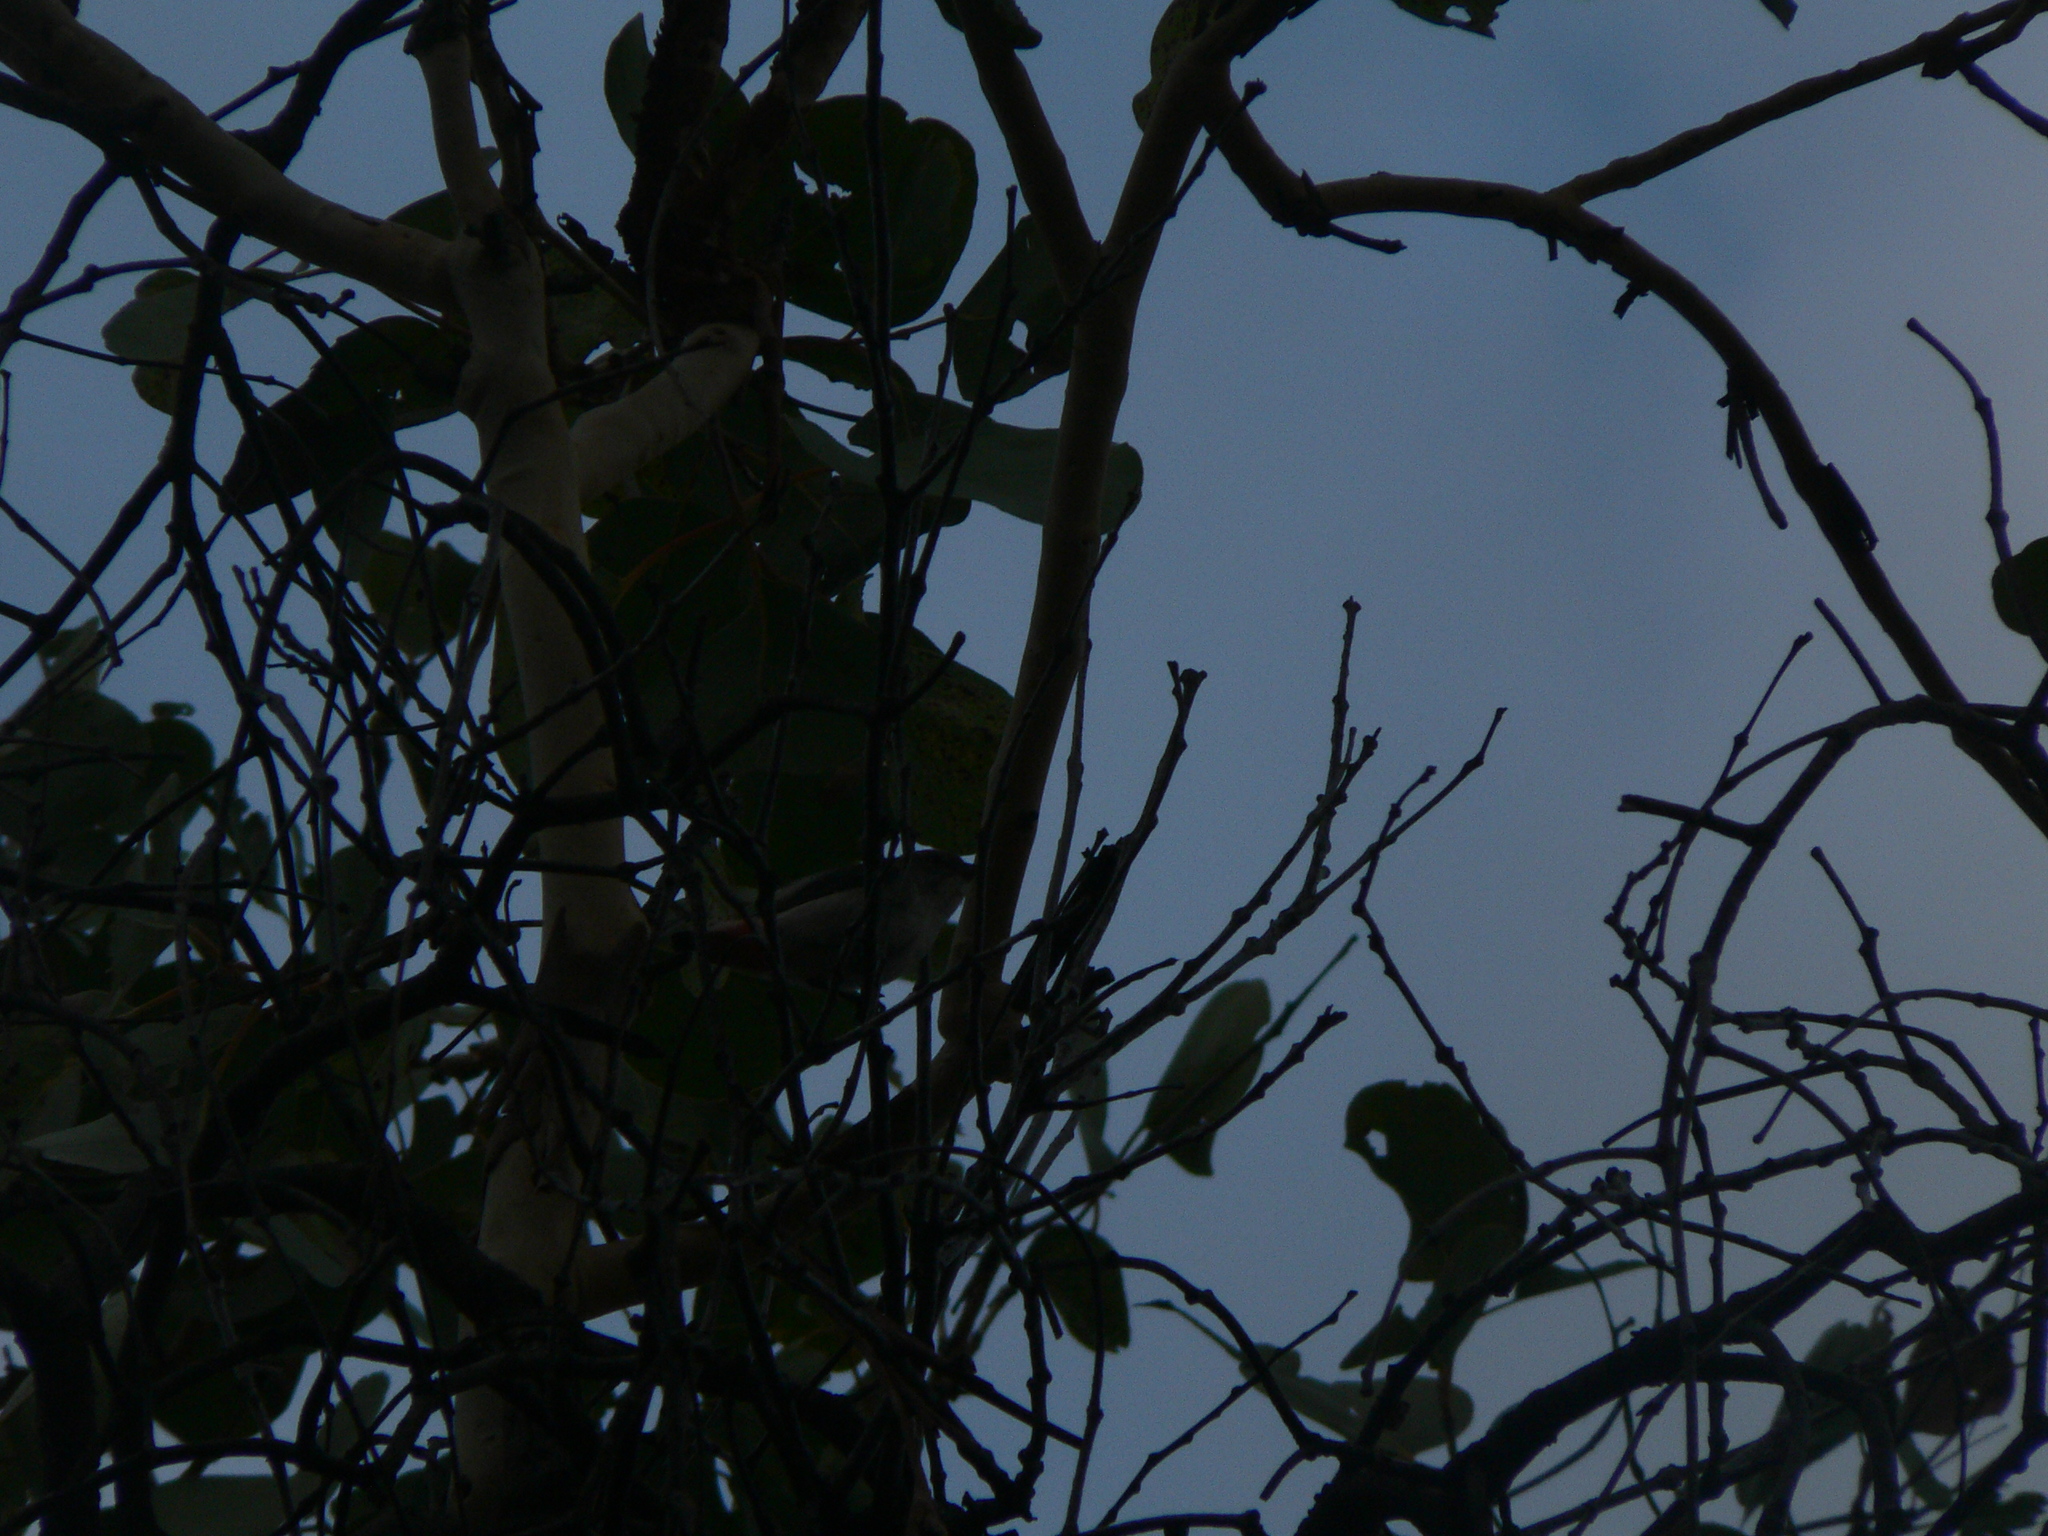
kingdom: Animalia
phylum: Chordata
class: Aves
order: Passeriformes
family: Dicaeidae
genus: Dicaeum
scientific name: Dicaeum hirundinaceum
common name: Mistletoebird
